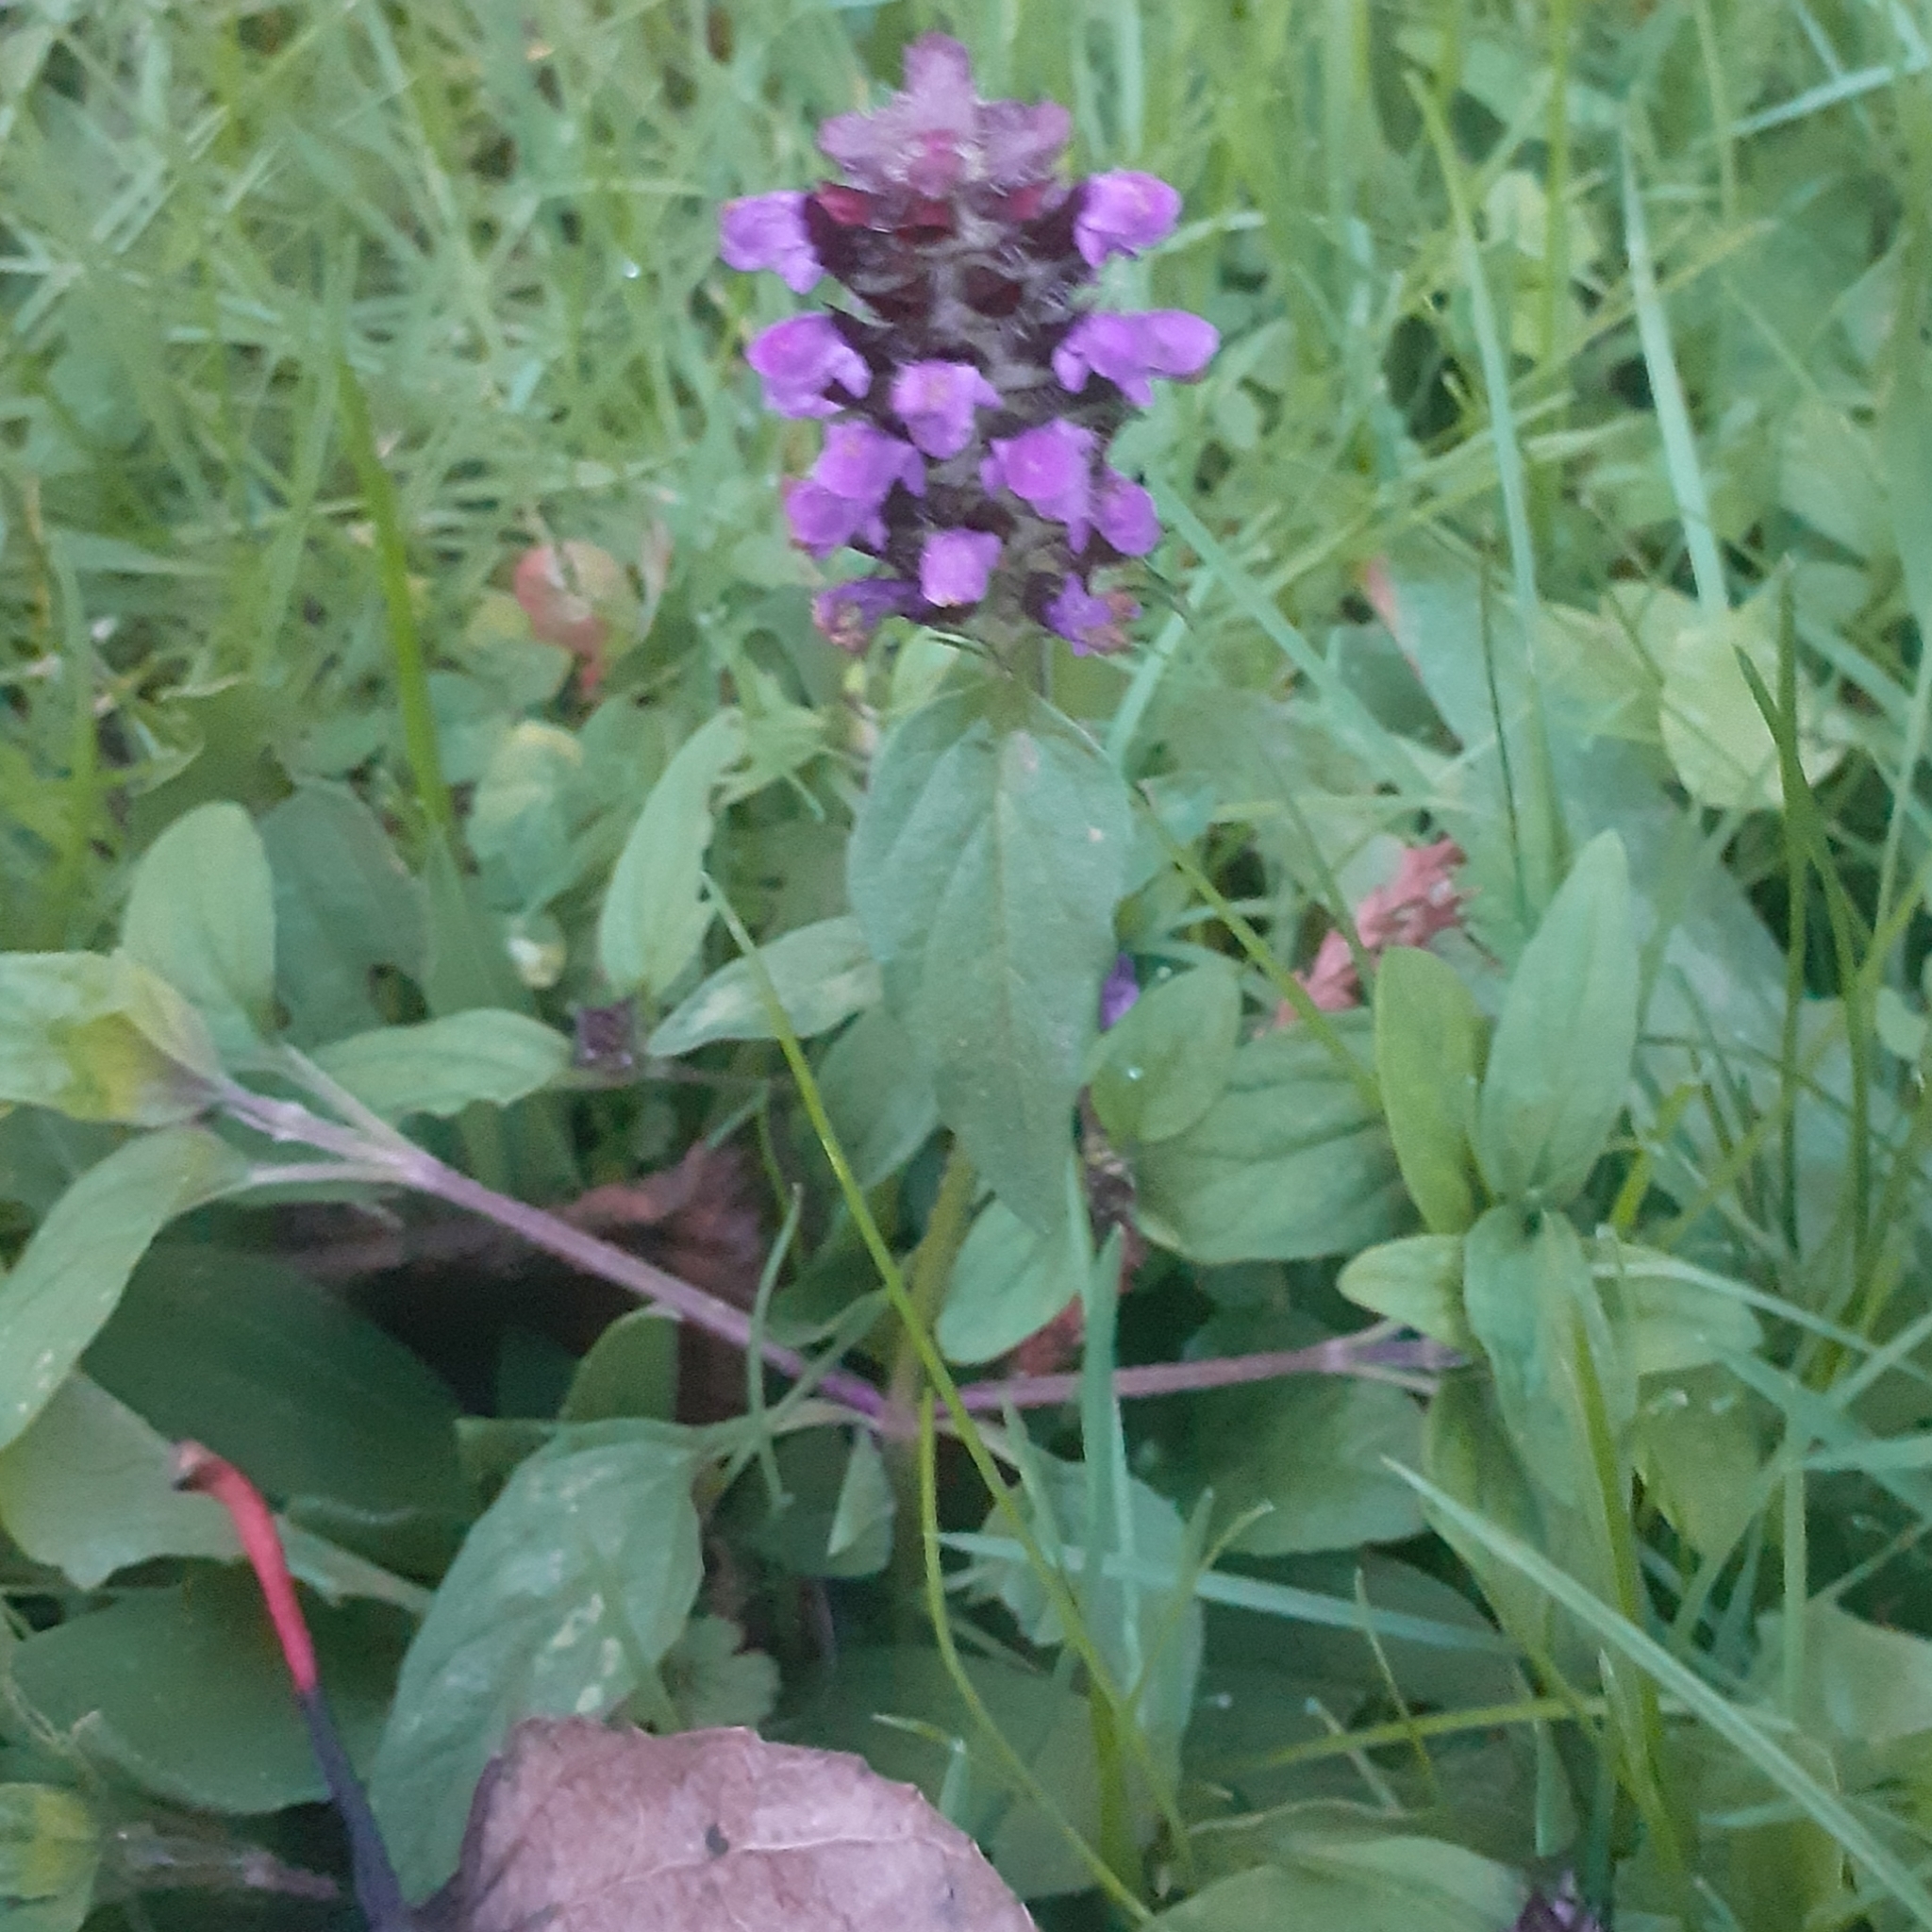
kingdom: Plantae
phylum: Tracheophyta
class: Magnoliopsida
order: Lamiales
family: Lamiaceae
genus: Prunella
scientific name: Prunella vulgaris
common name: Heal-all
